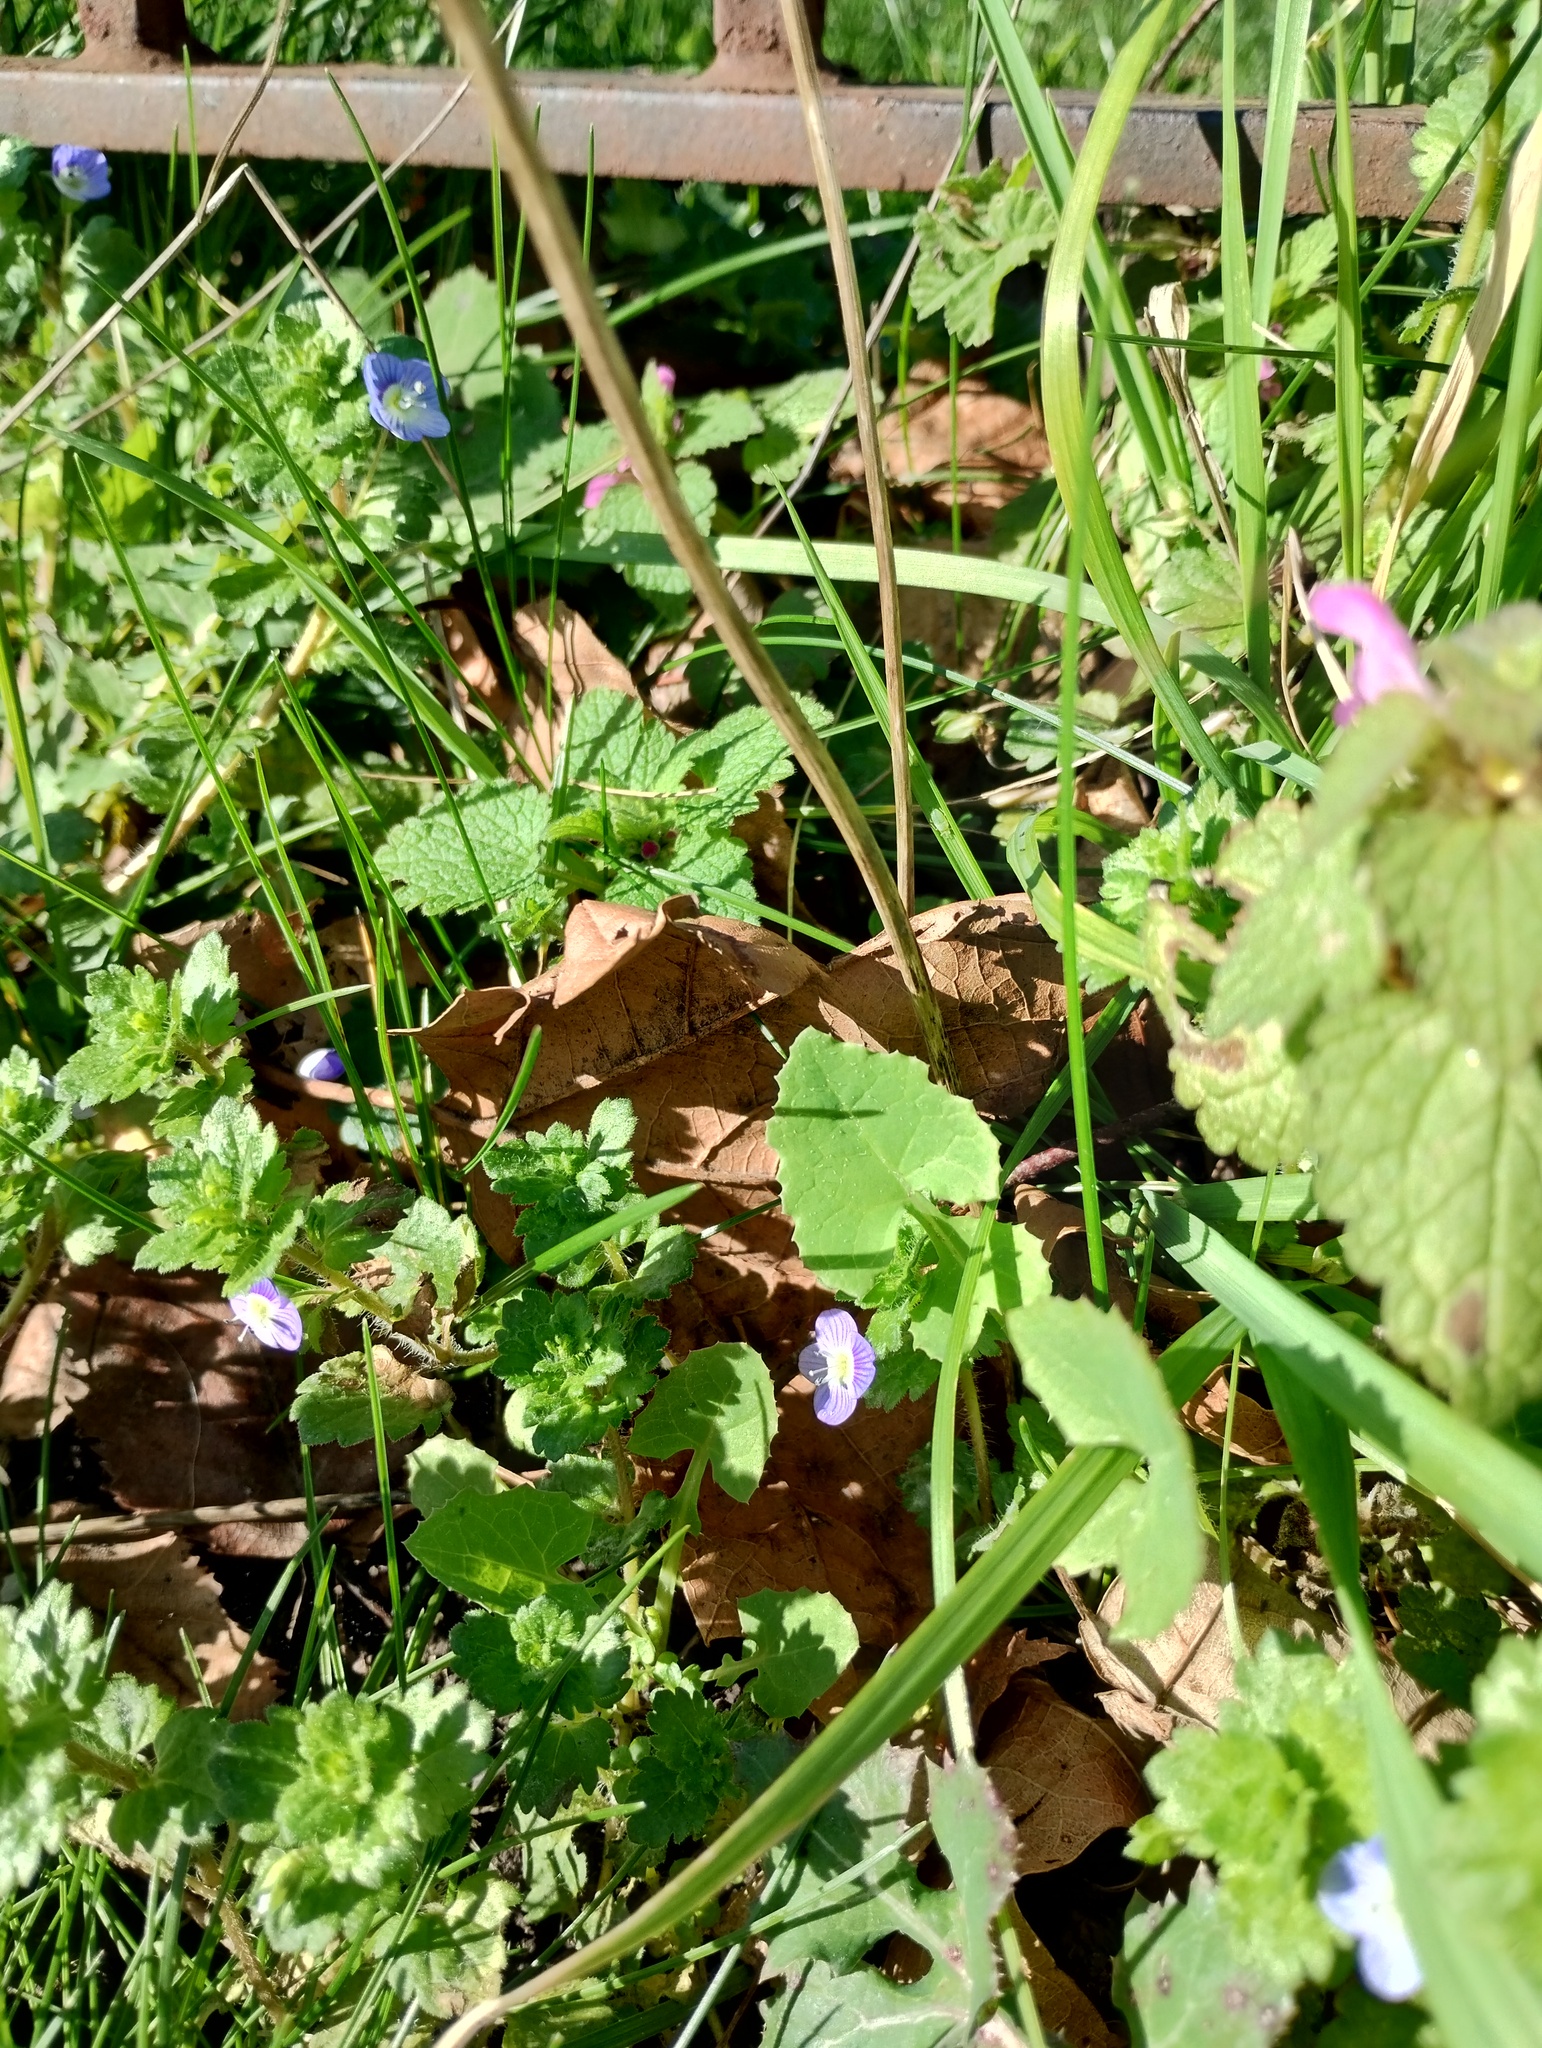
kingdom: Plantae
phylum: Tracheophyta
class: Magnoliopsida
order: Lamiales
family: Plantaginaceae
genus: Veronica
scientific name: Veronica persica
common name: Common field-speedwell
